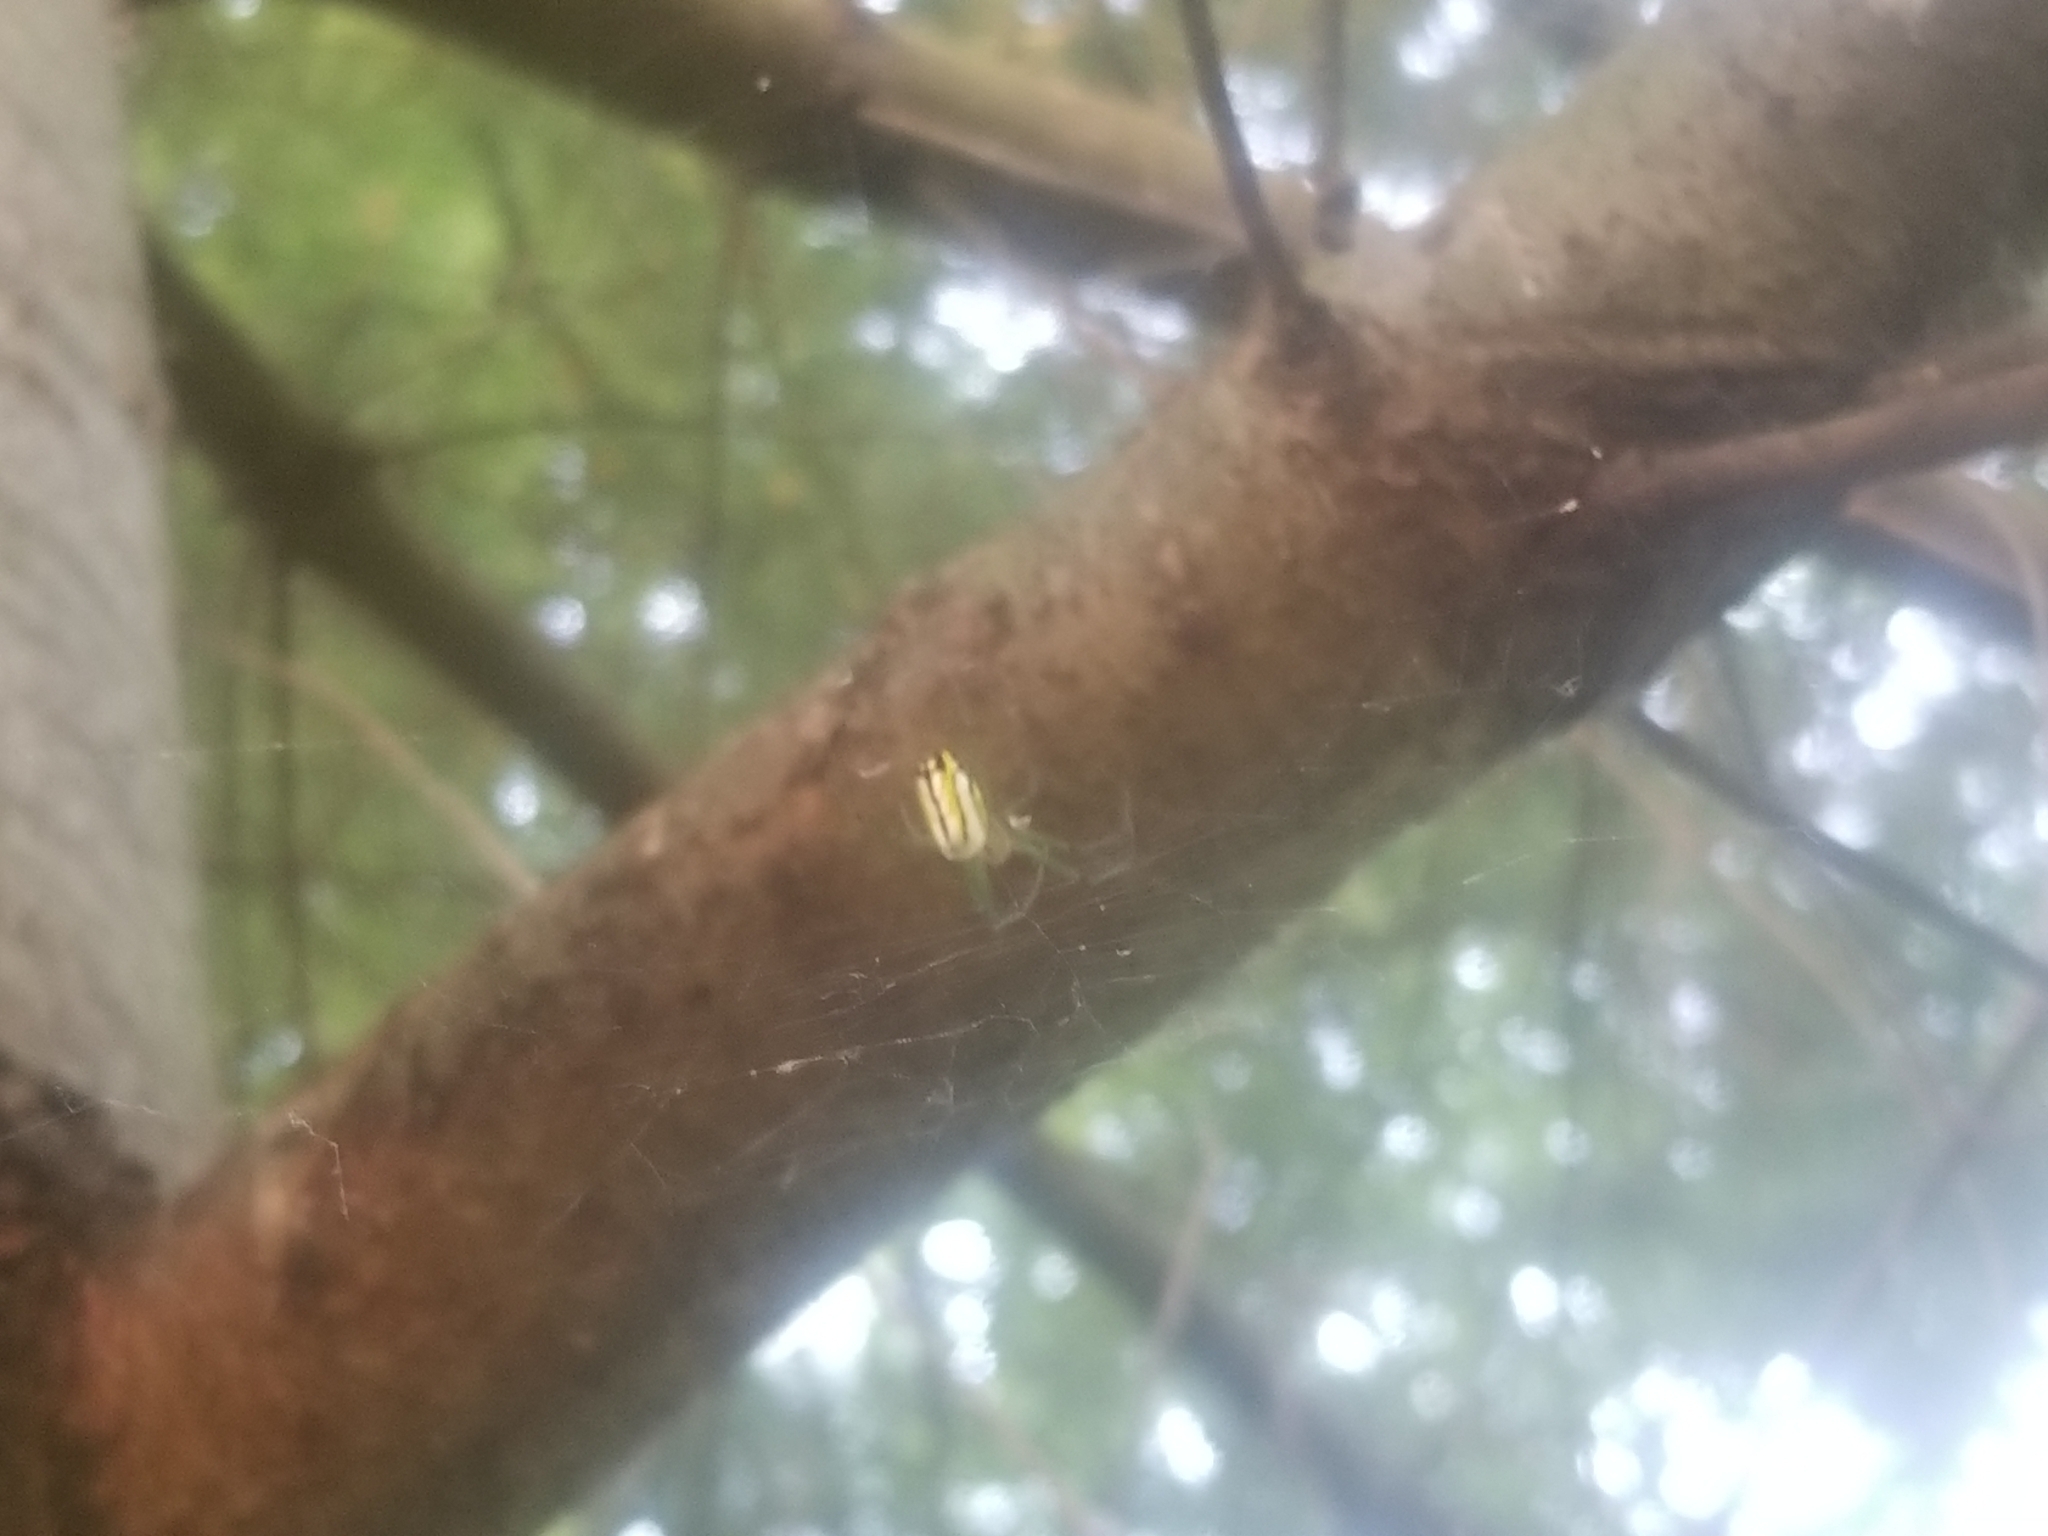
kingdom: Animalia
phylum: Arthropoda
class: Arachnida
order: Araneae
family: Tetragnathidae
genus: Leucauge
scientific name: Leucauge venusta
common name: Longjawed orb weavers
